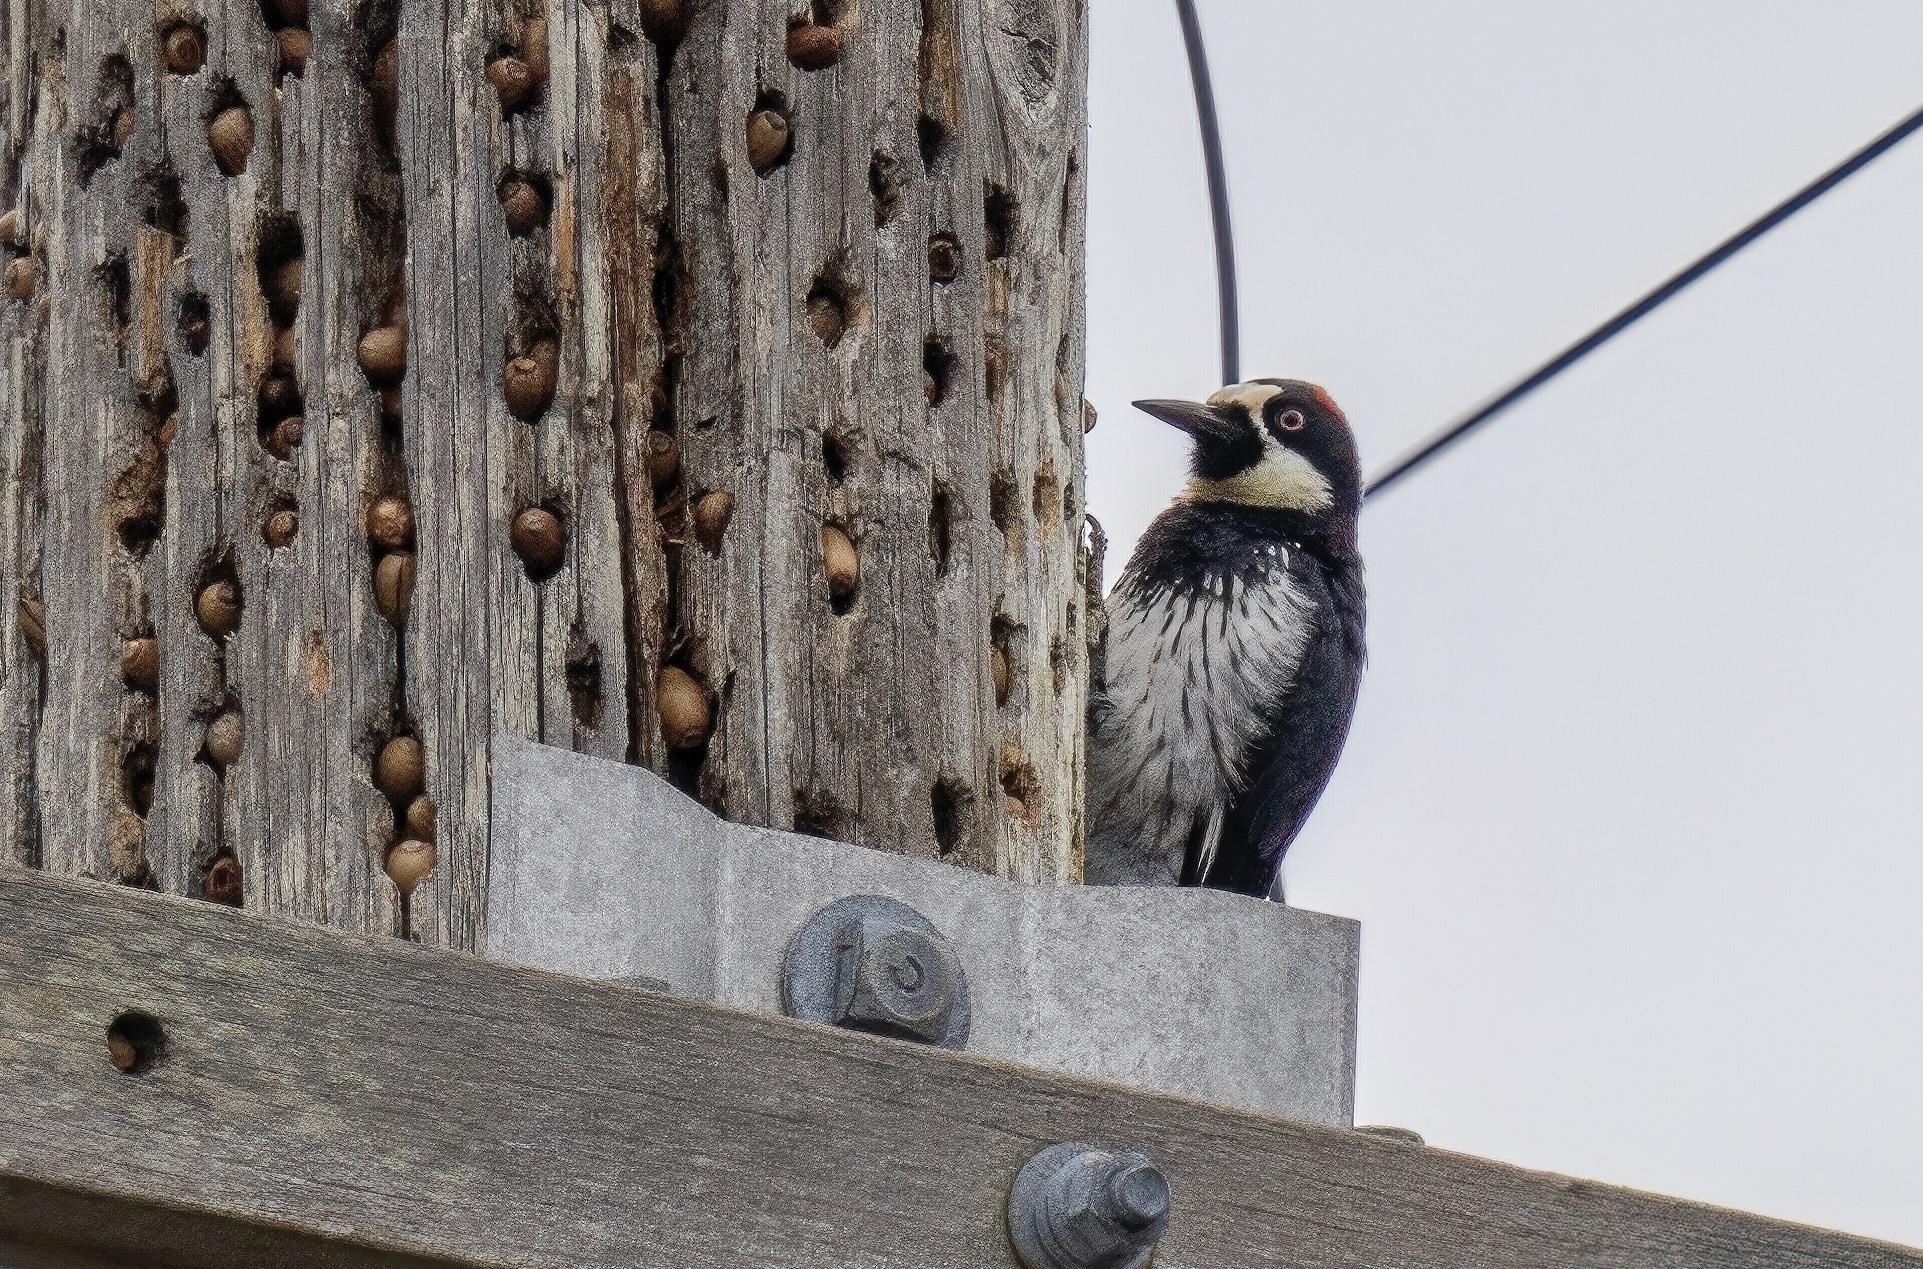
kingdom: Animalia
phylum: Chordata
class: Aves
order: Piciformes
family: Picidae
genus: Melanerpes
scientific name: Melanerpes formicivorus
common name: Acorn woodpecker
